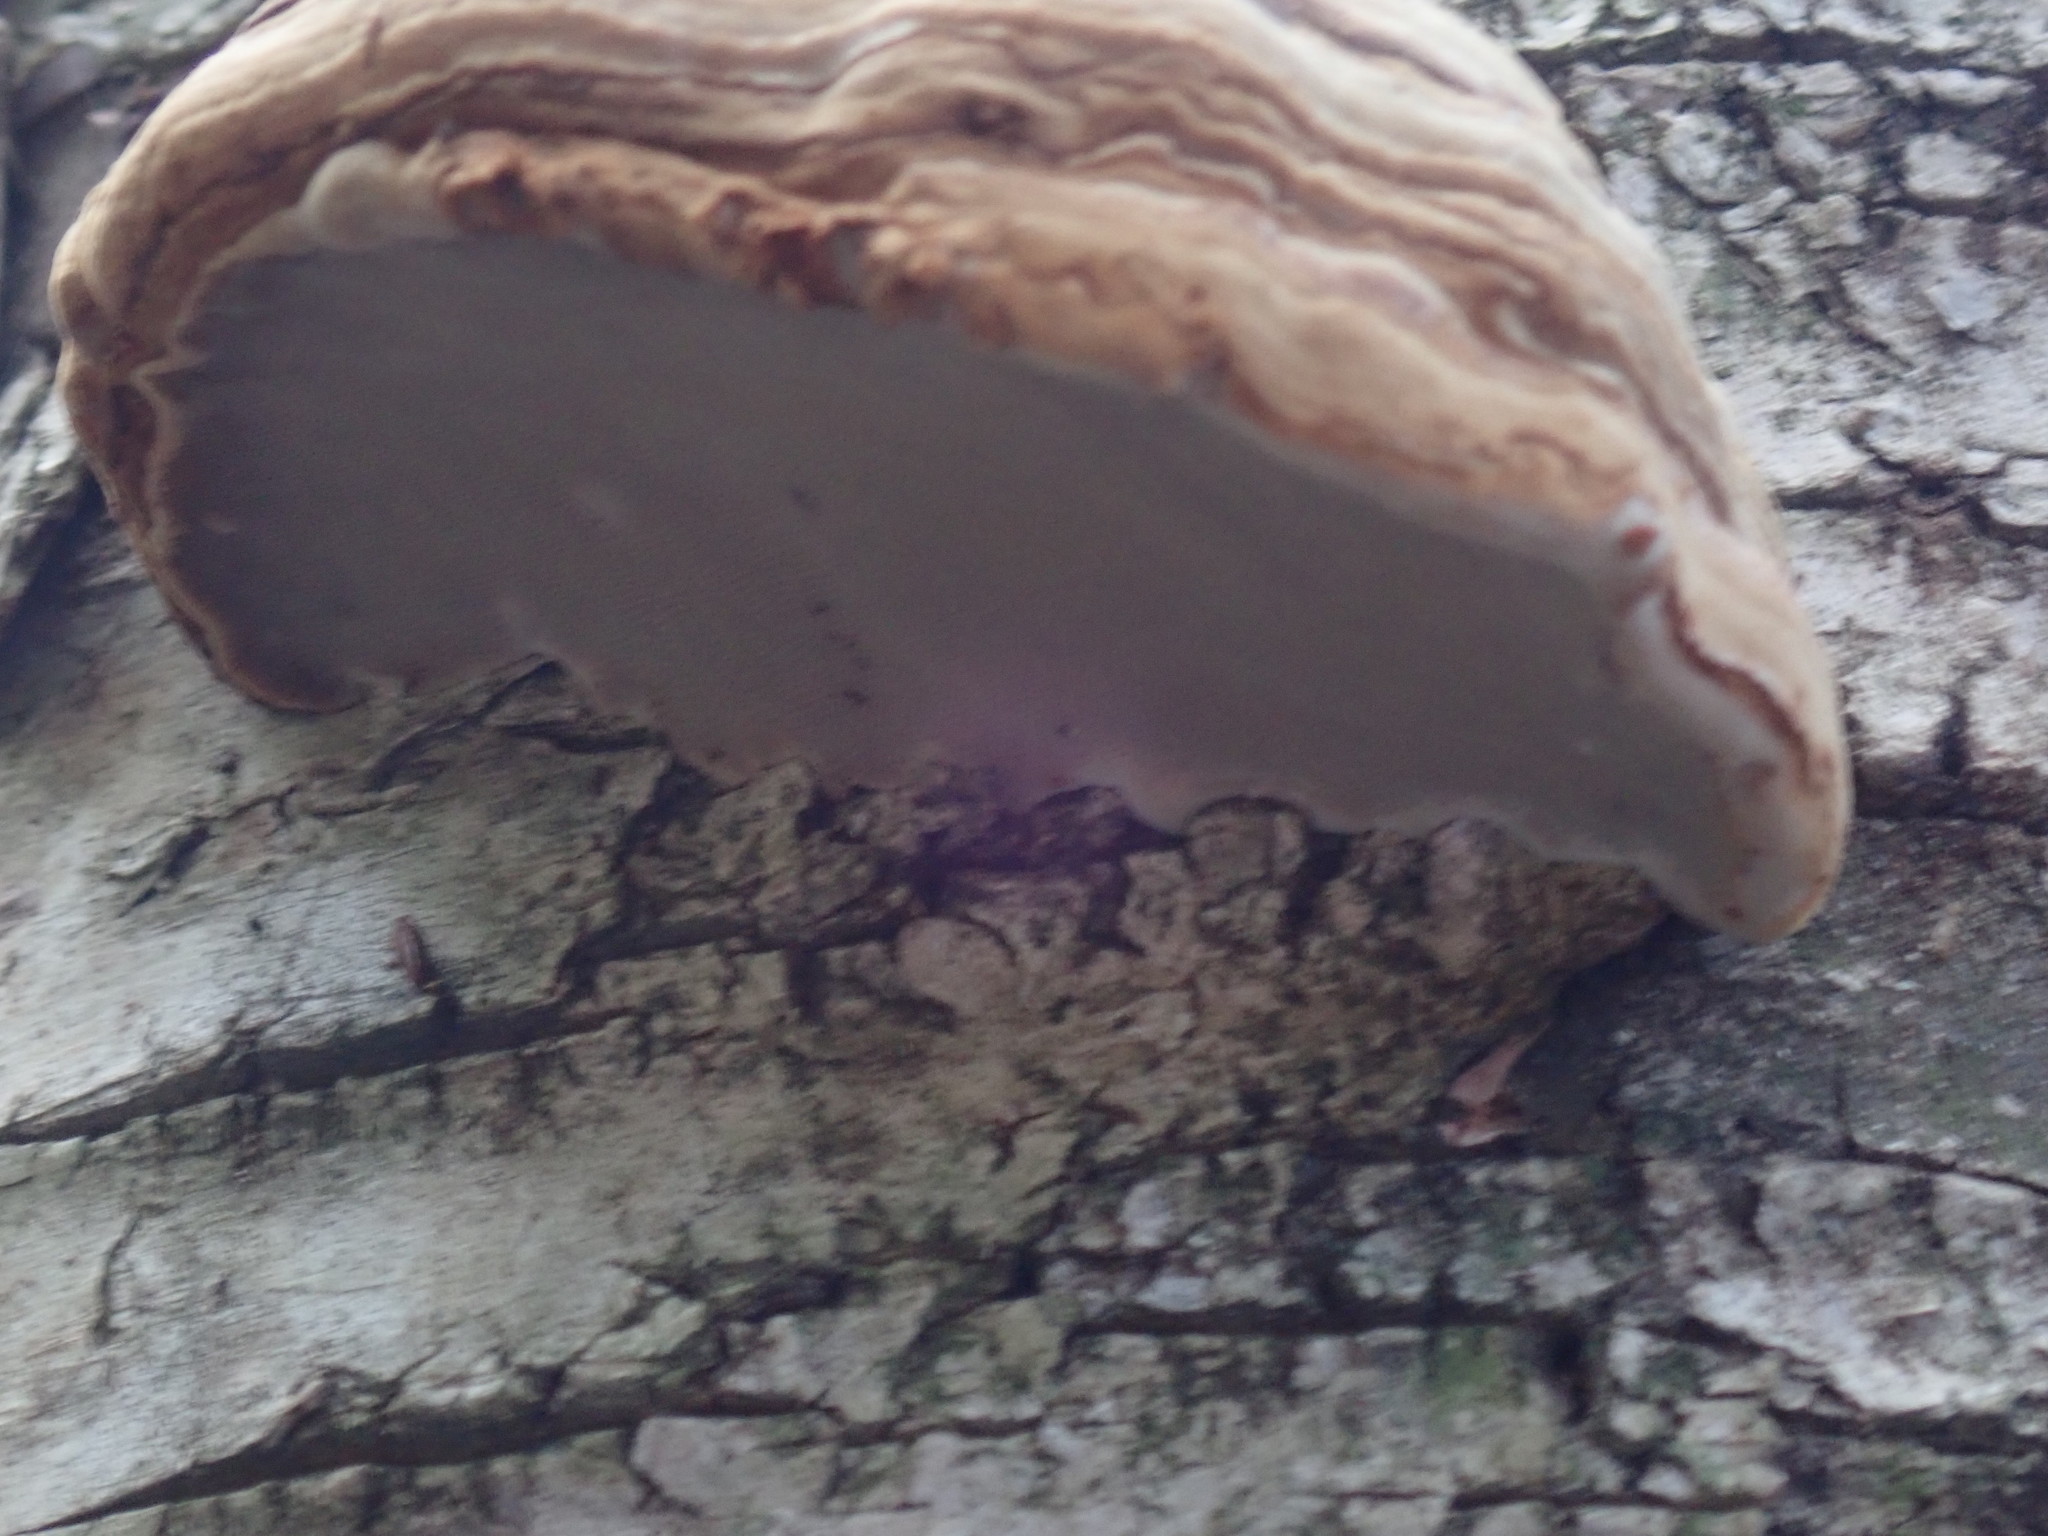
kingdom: Fungi
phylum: Basidiomycota
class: Agaricomycetes
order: Polyporales
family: Polyporaceae
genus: Fomes
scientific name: Fomes fomentarius
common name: Hoof fungus
